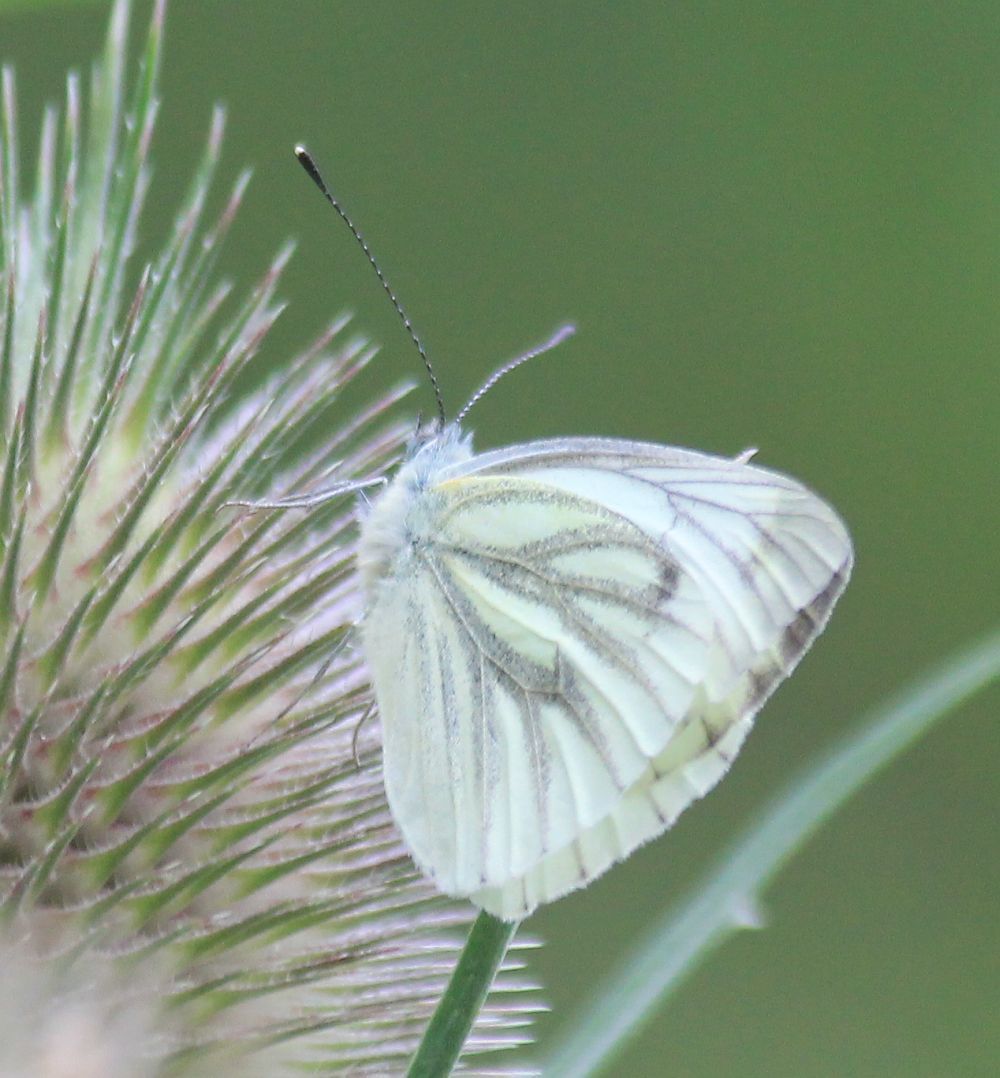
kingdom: Animalia
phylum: Arthropoda
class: Insecta
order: Lepidoptera
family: Pieridae
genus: Pieris
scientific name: Pieris napi
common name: Green-veined white
